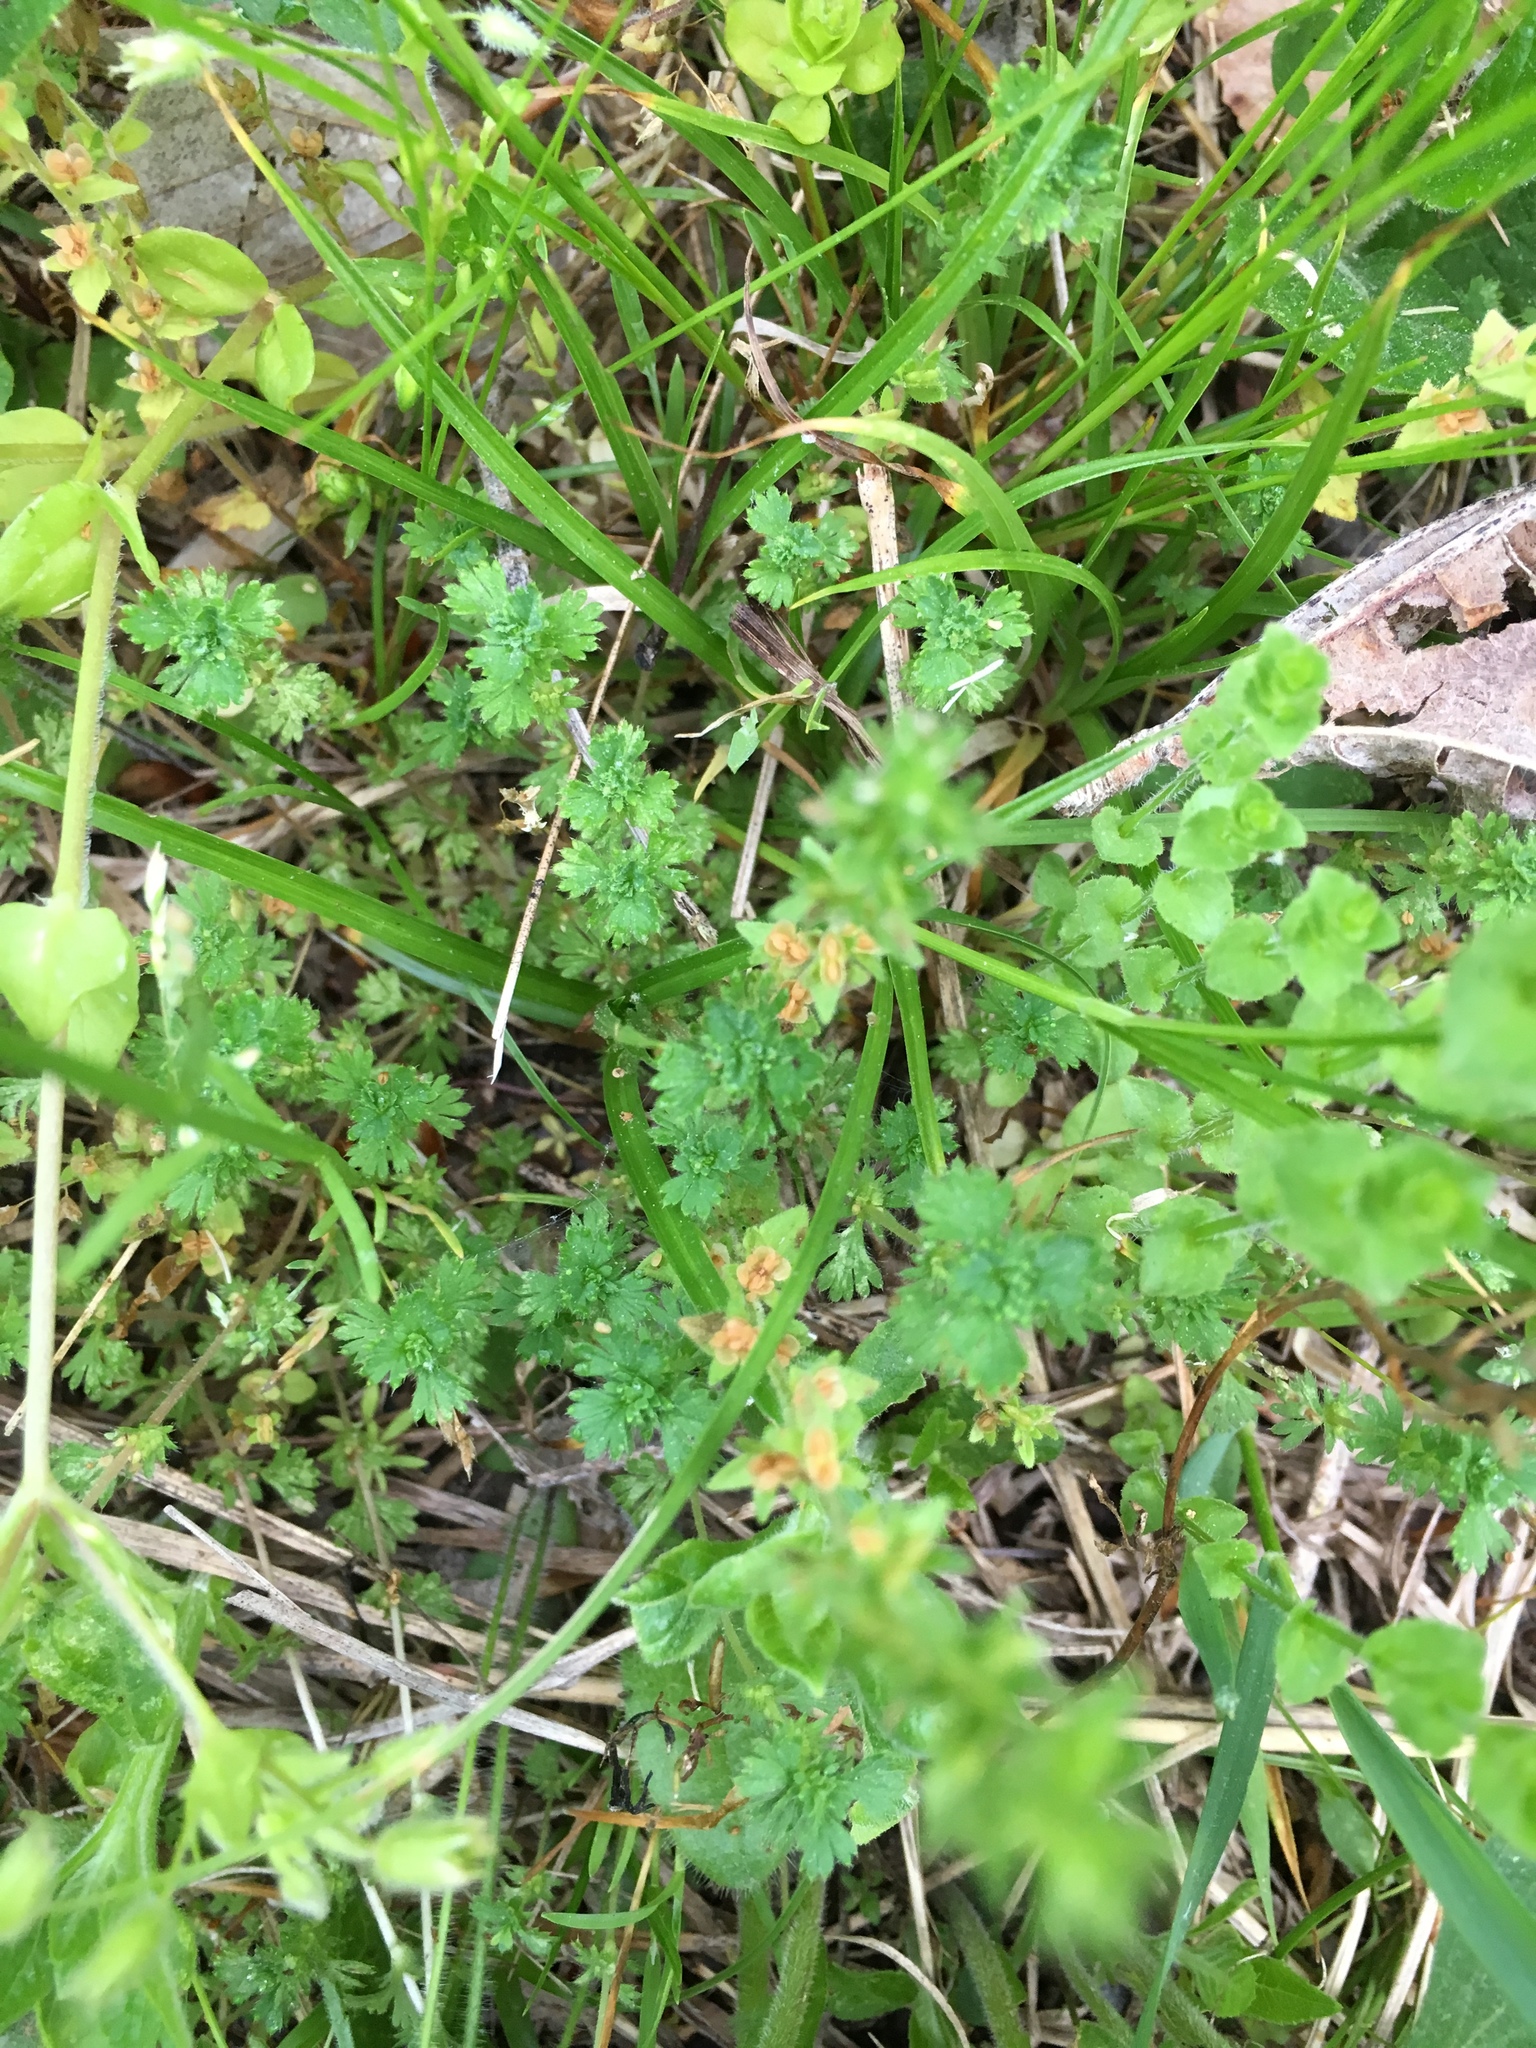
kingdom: Plantae
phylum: Tracheophyta
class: Magnoliopsida
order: Lamiales
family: Plantaginaceae
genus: Nuttallanthus
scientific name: Nuttallanthus canadensis
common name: Blue toadflax
